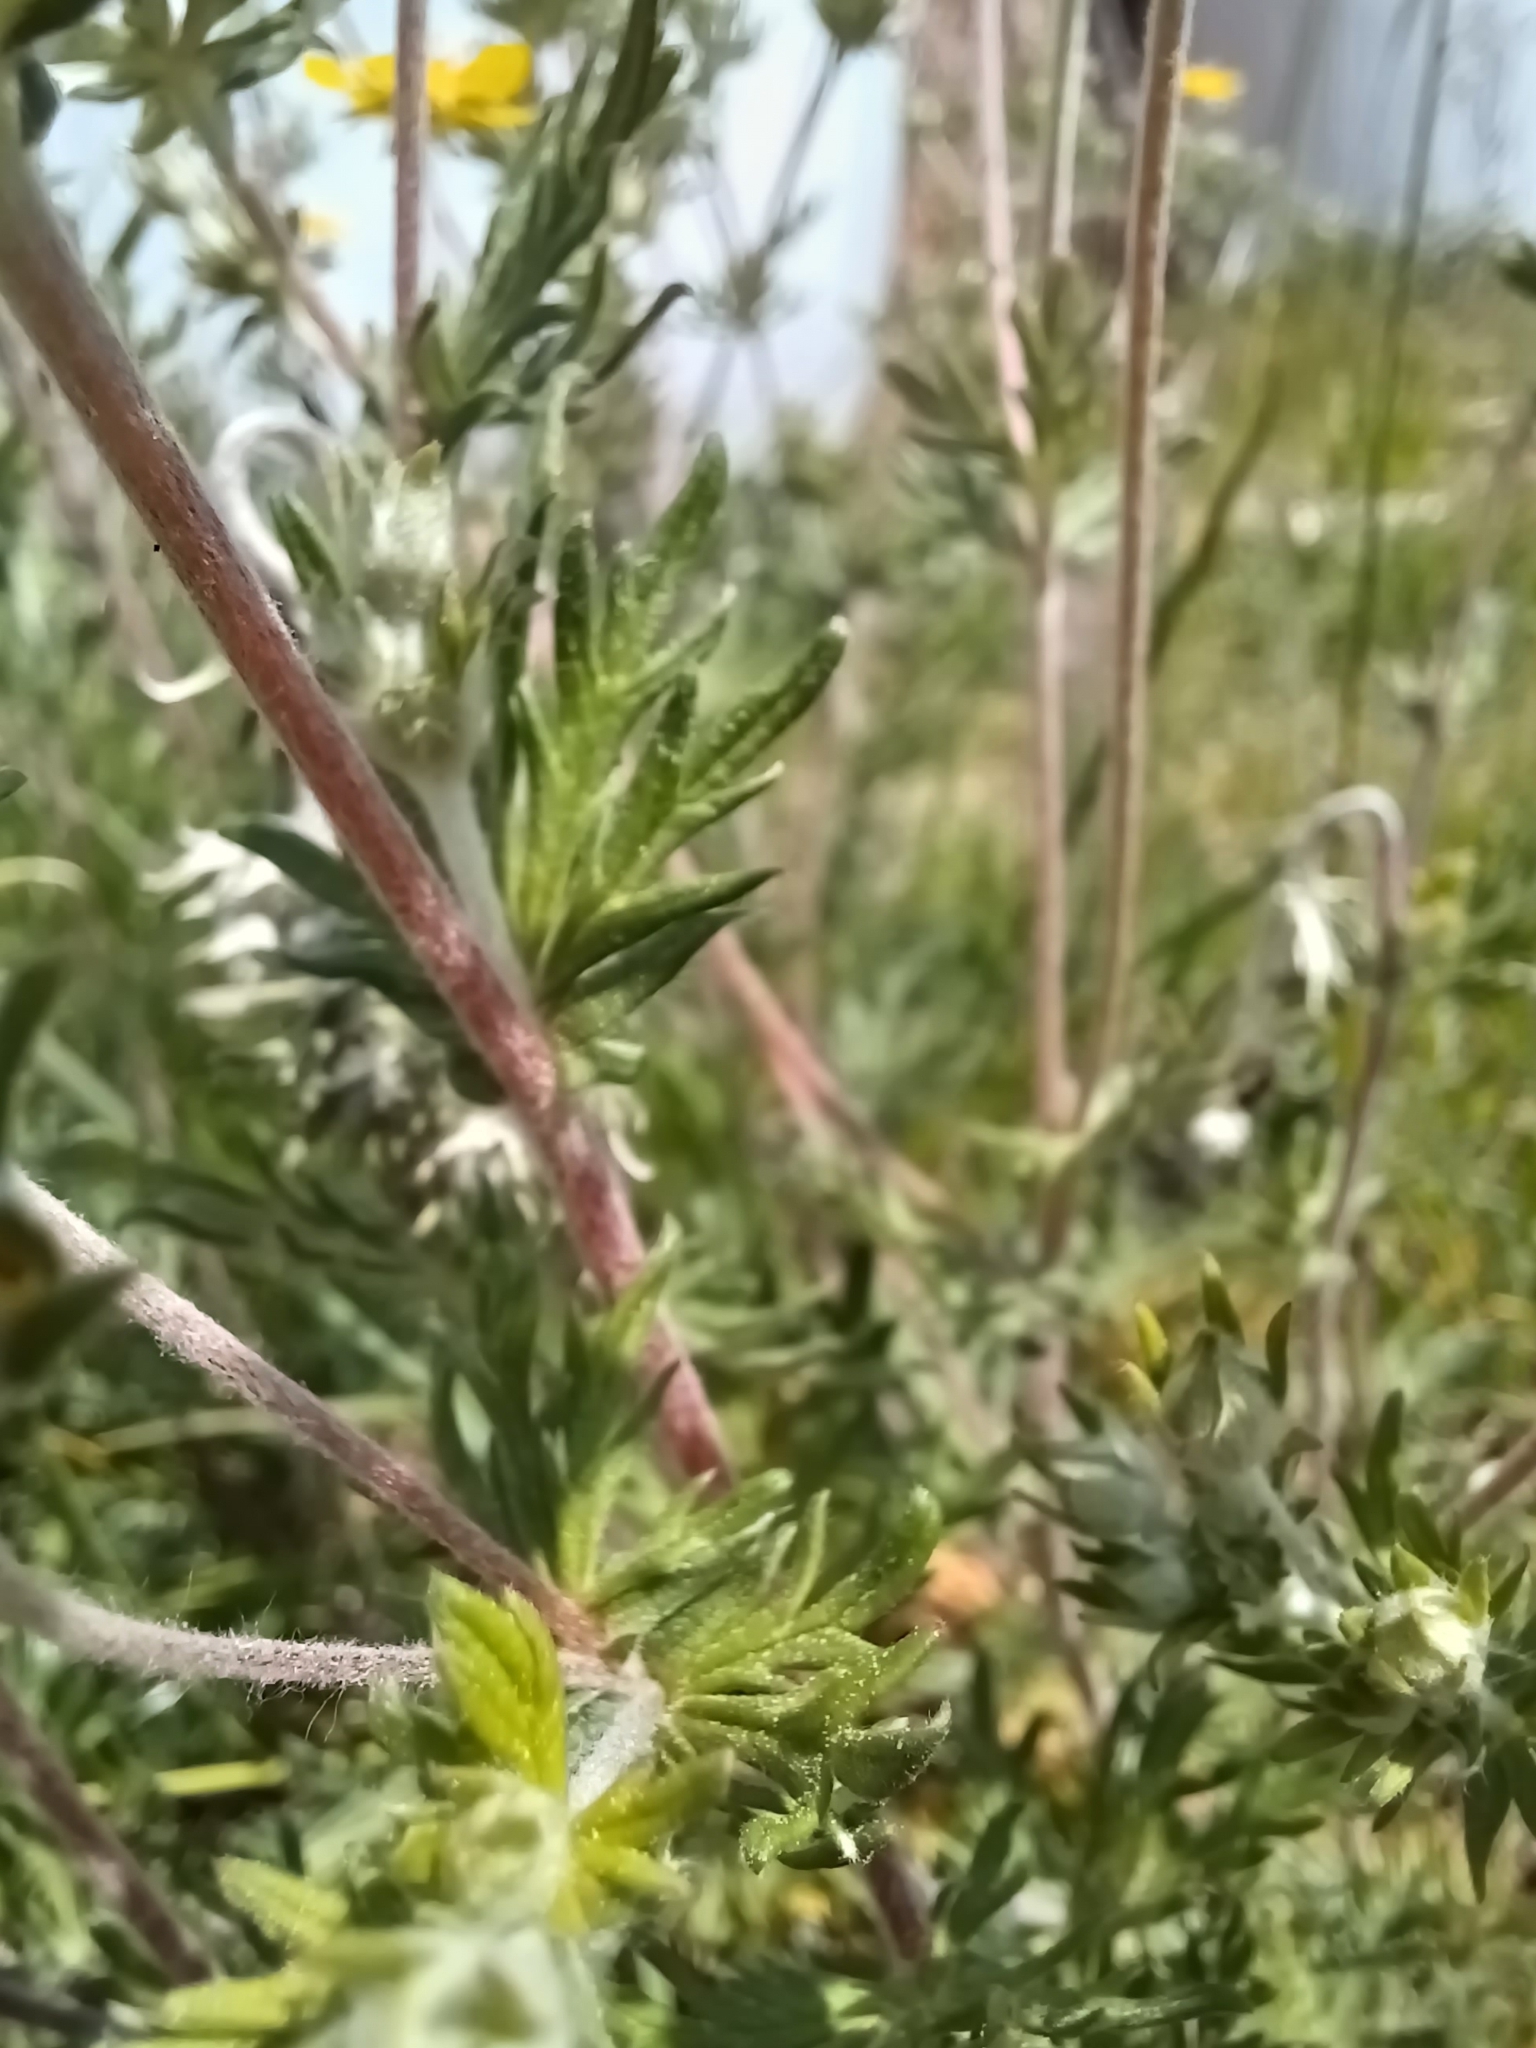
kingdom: Plantae
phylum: Tracheophyta
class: Magnoliopsida
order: Rosales
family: Rosaceae
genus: Potentilla
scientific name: Potentilla argentea
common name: Hoary cinquefoil
